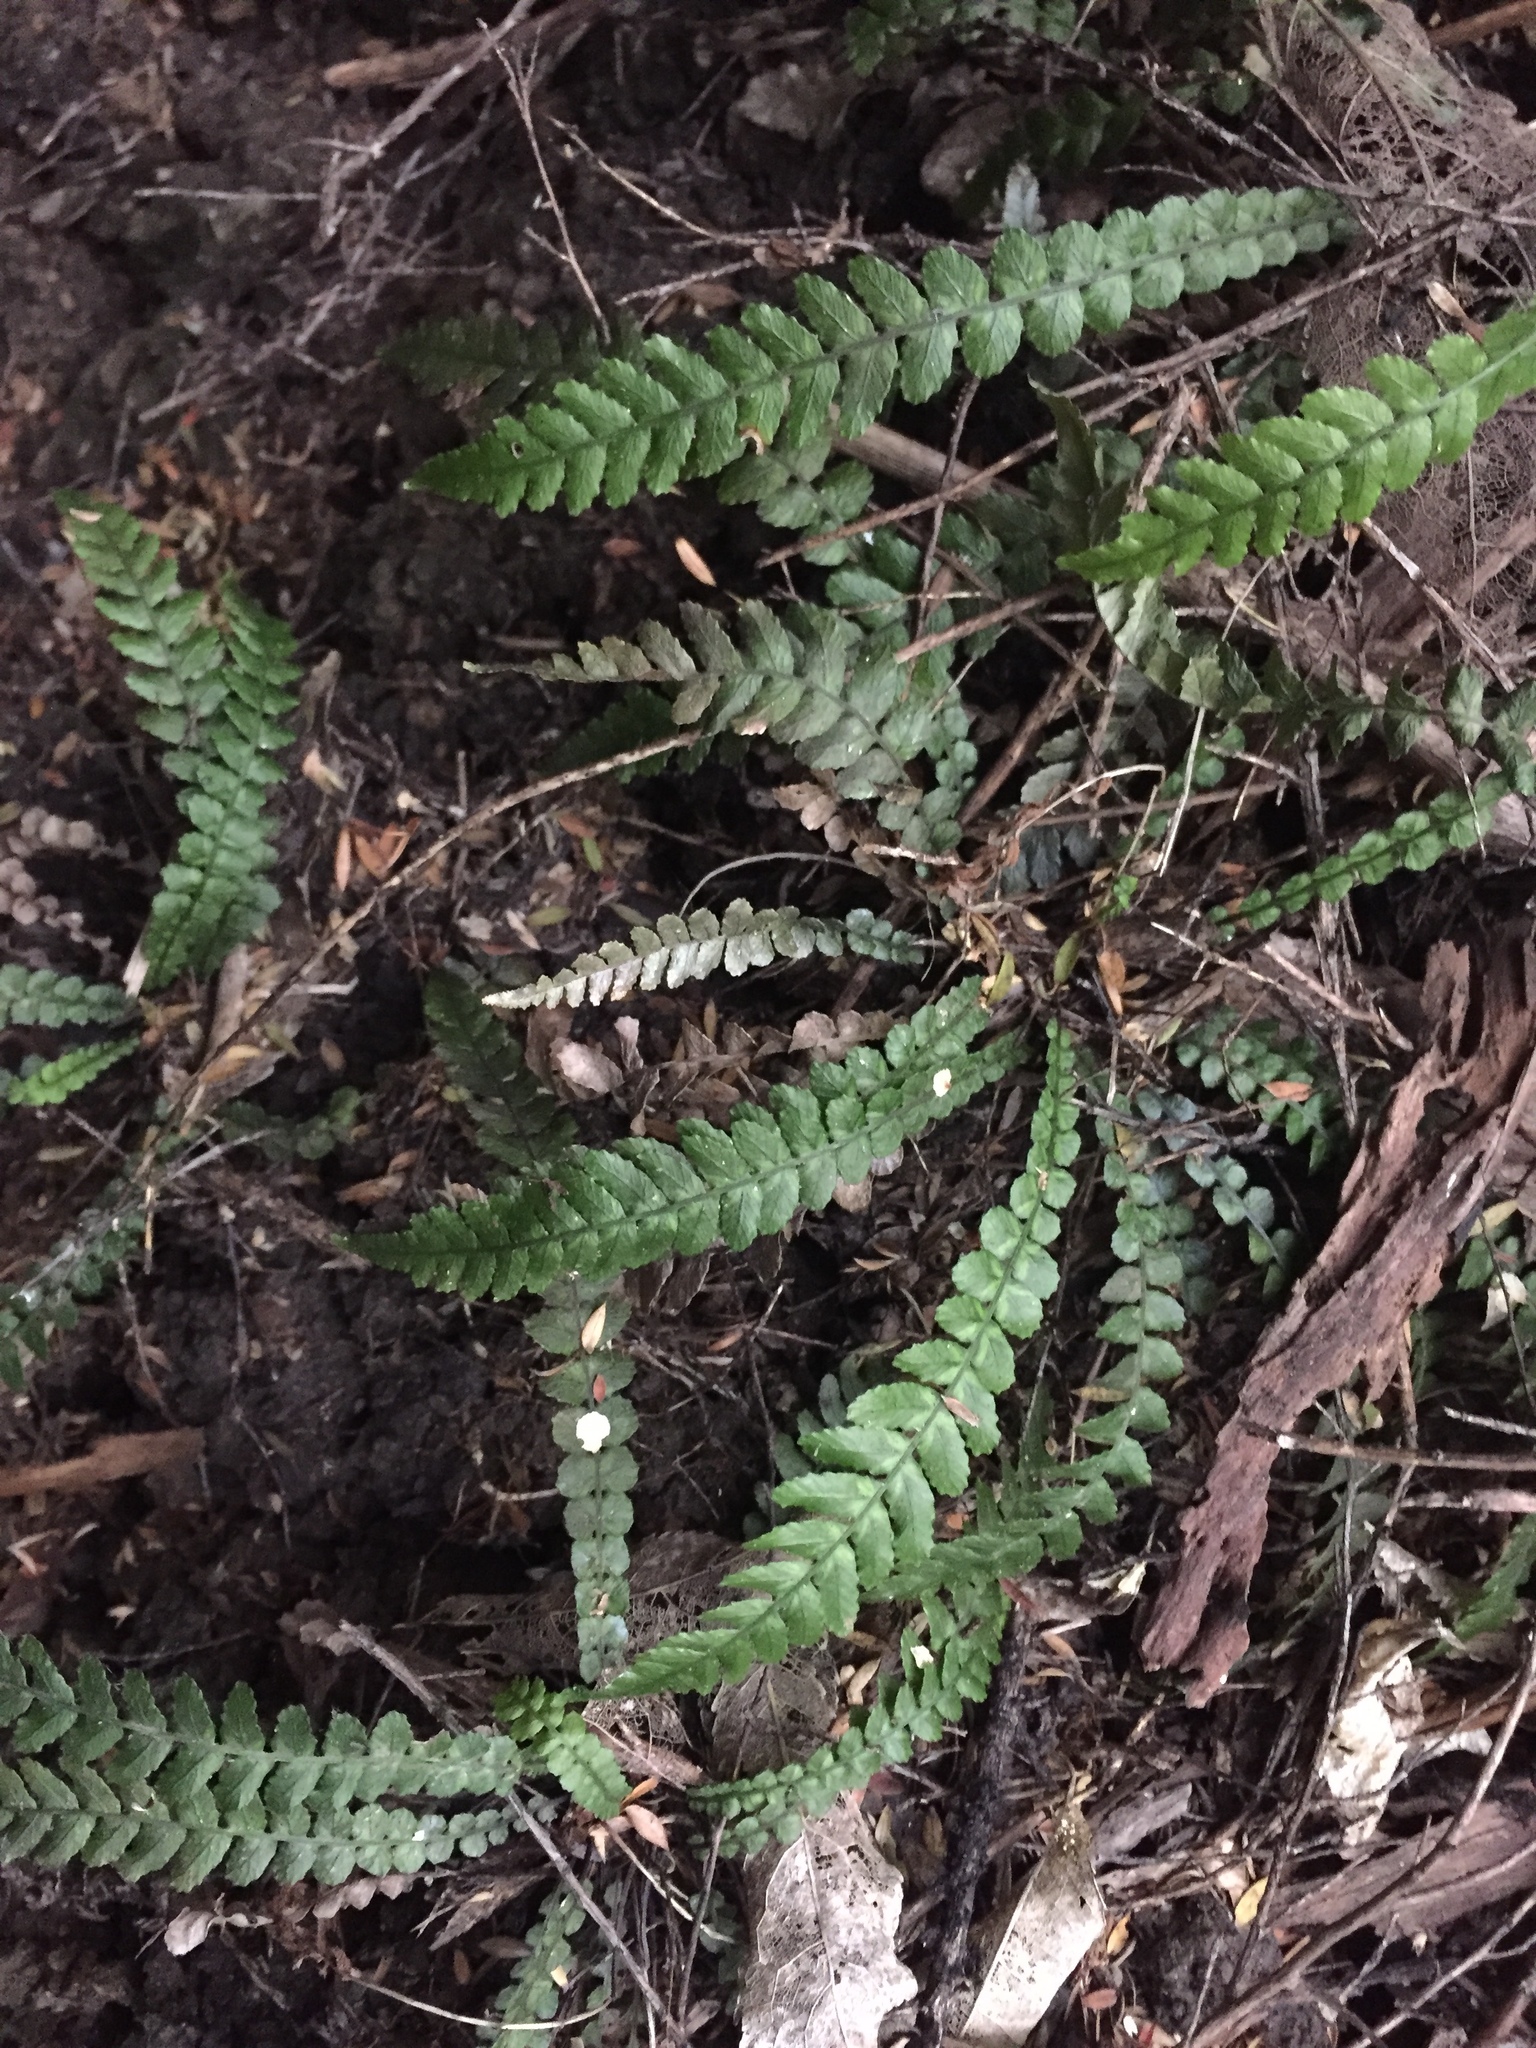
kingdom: Plantae
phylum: Tracheophyta
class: Polypodiopsida
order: Polypodiales
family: Blechnaceae
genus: Austroblechnum
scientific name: Austroblechnum membranaceum
